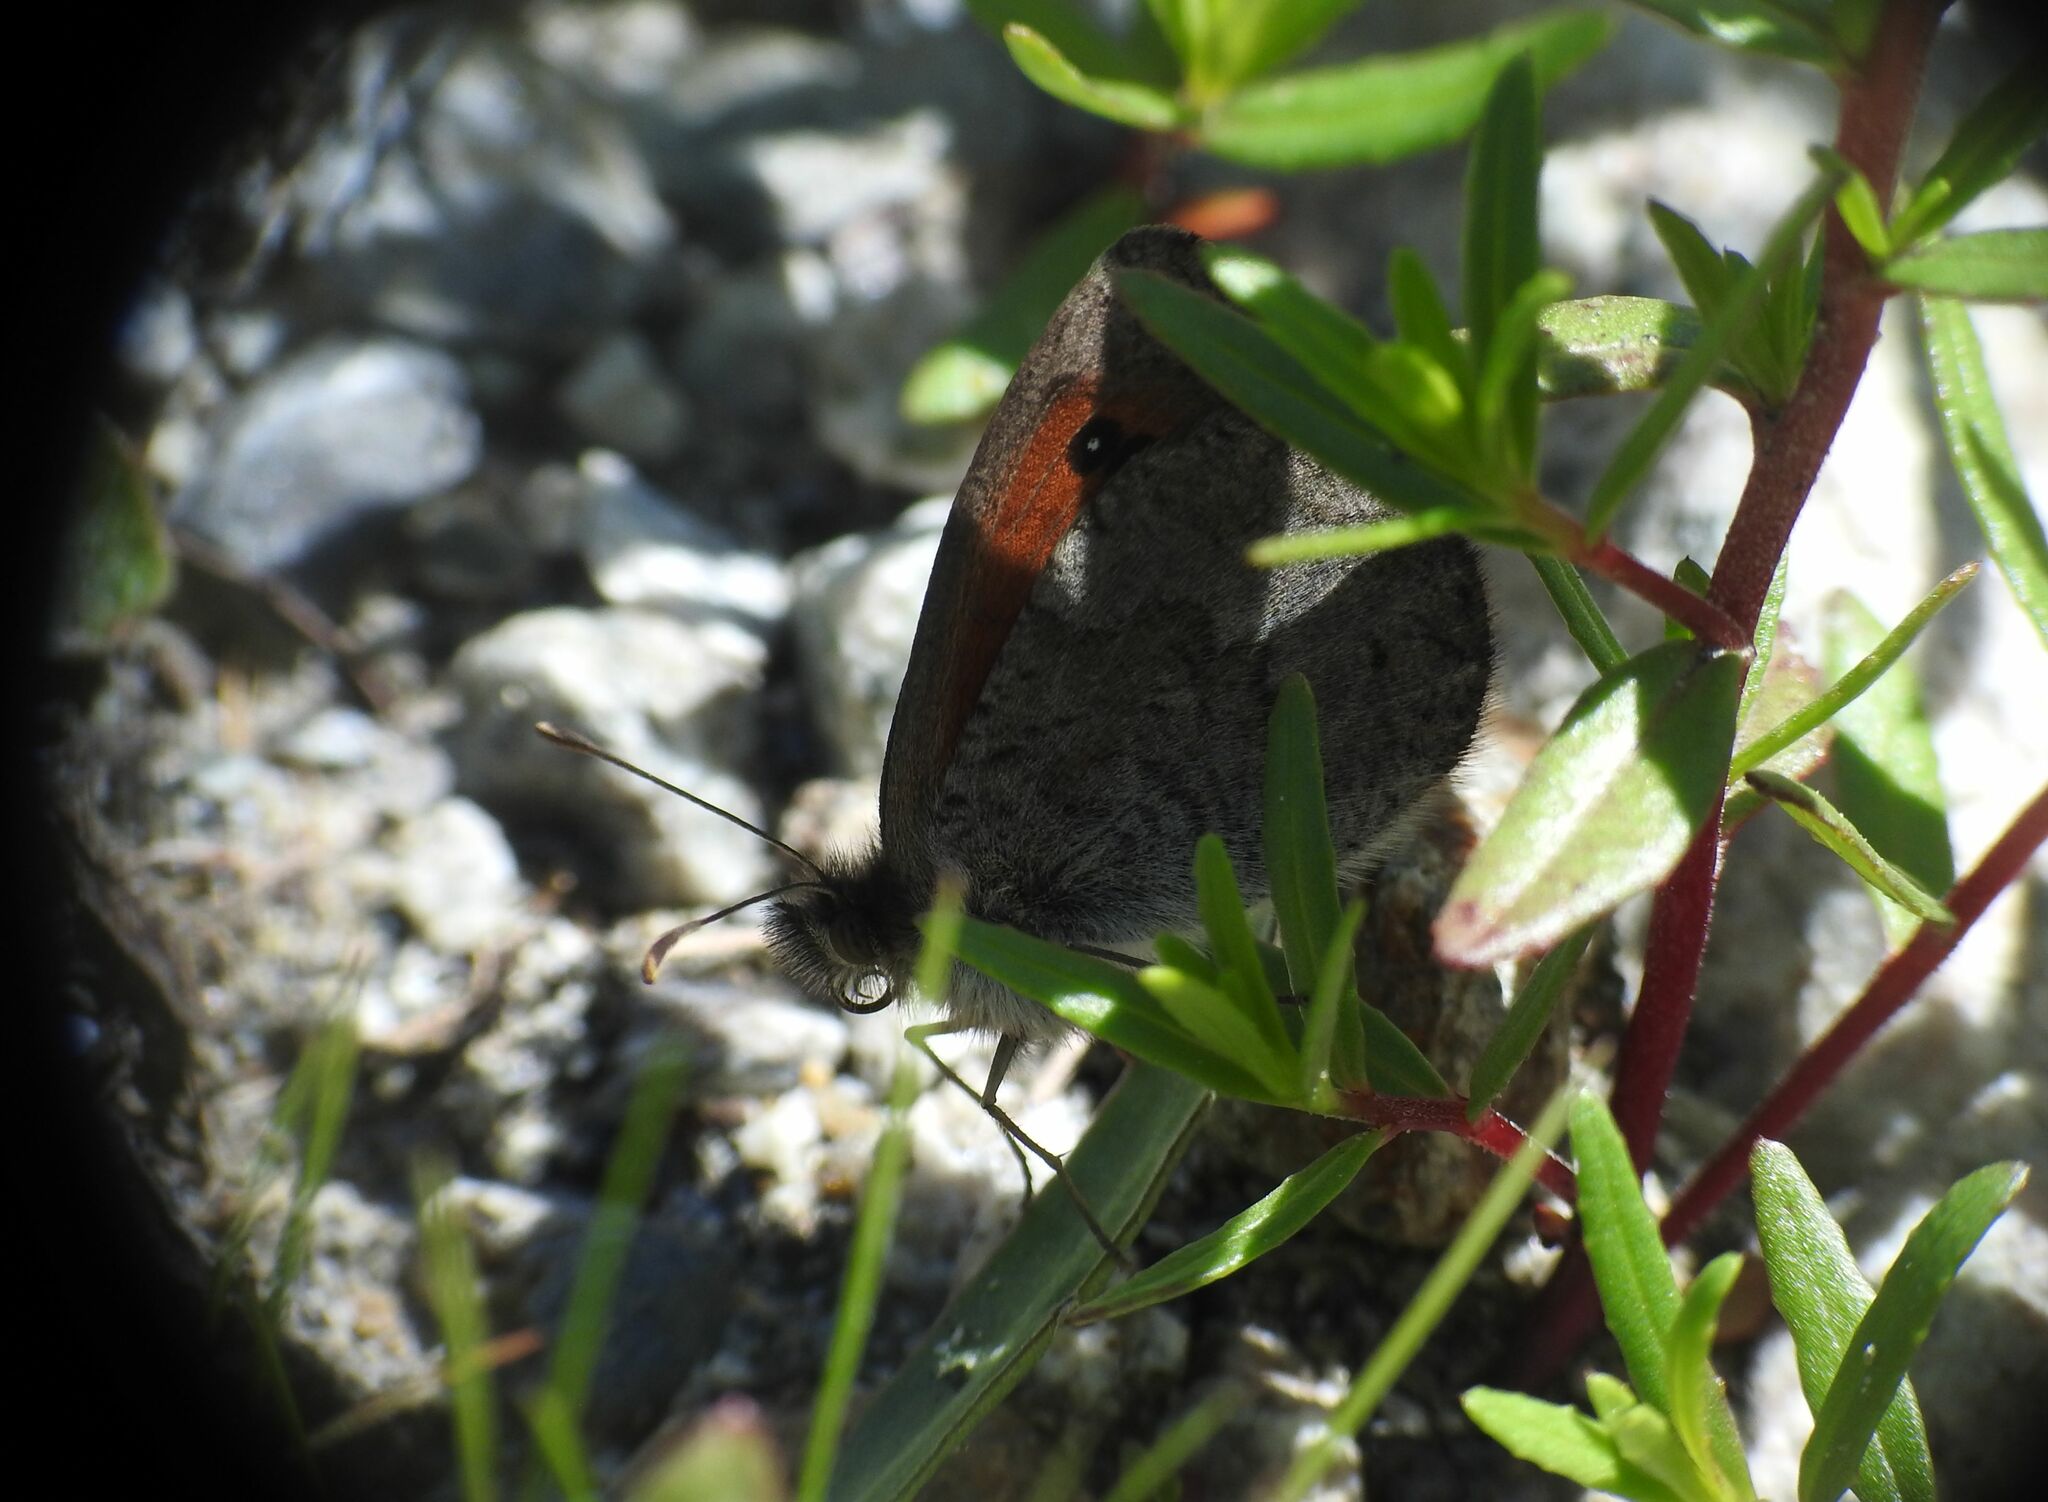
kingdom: Animalia
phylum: Arthropoda
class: Insecta
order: Lepidoptera
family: Nymphalidae
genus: Erebia
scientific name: Erebia cassioides
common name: Common brassy ringlet
